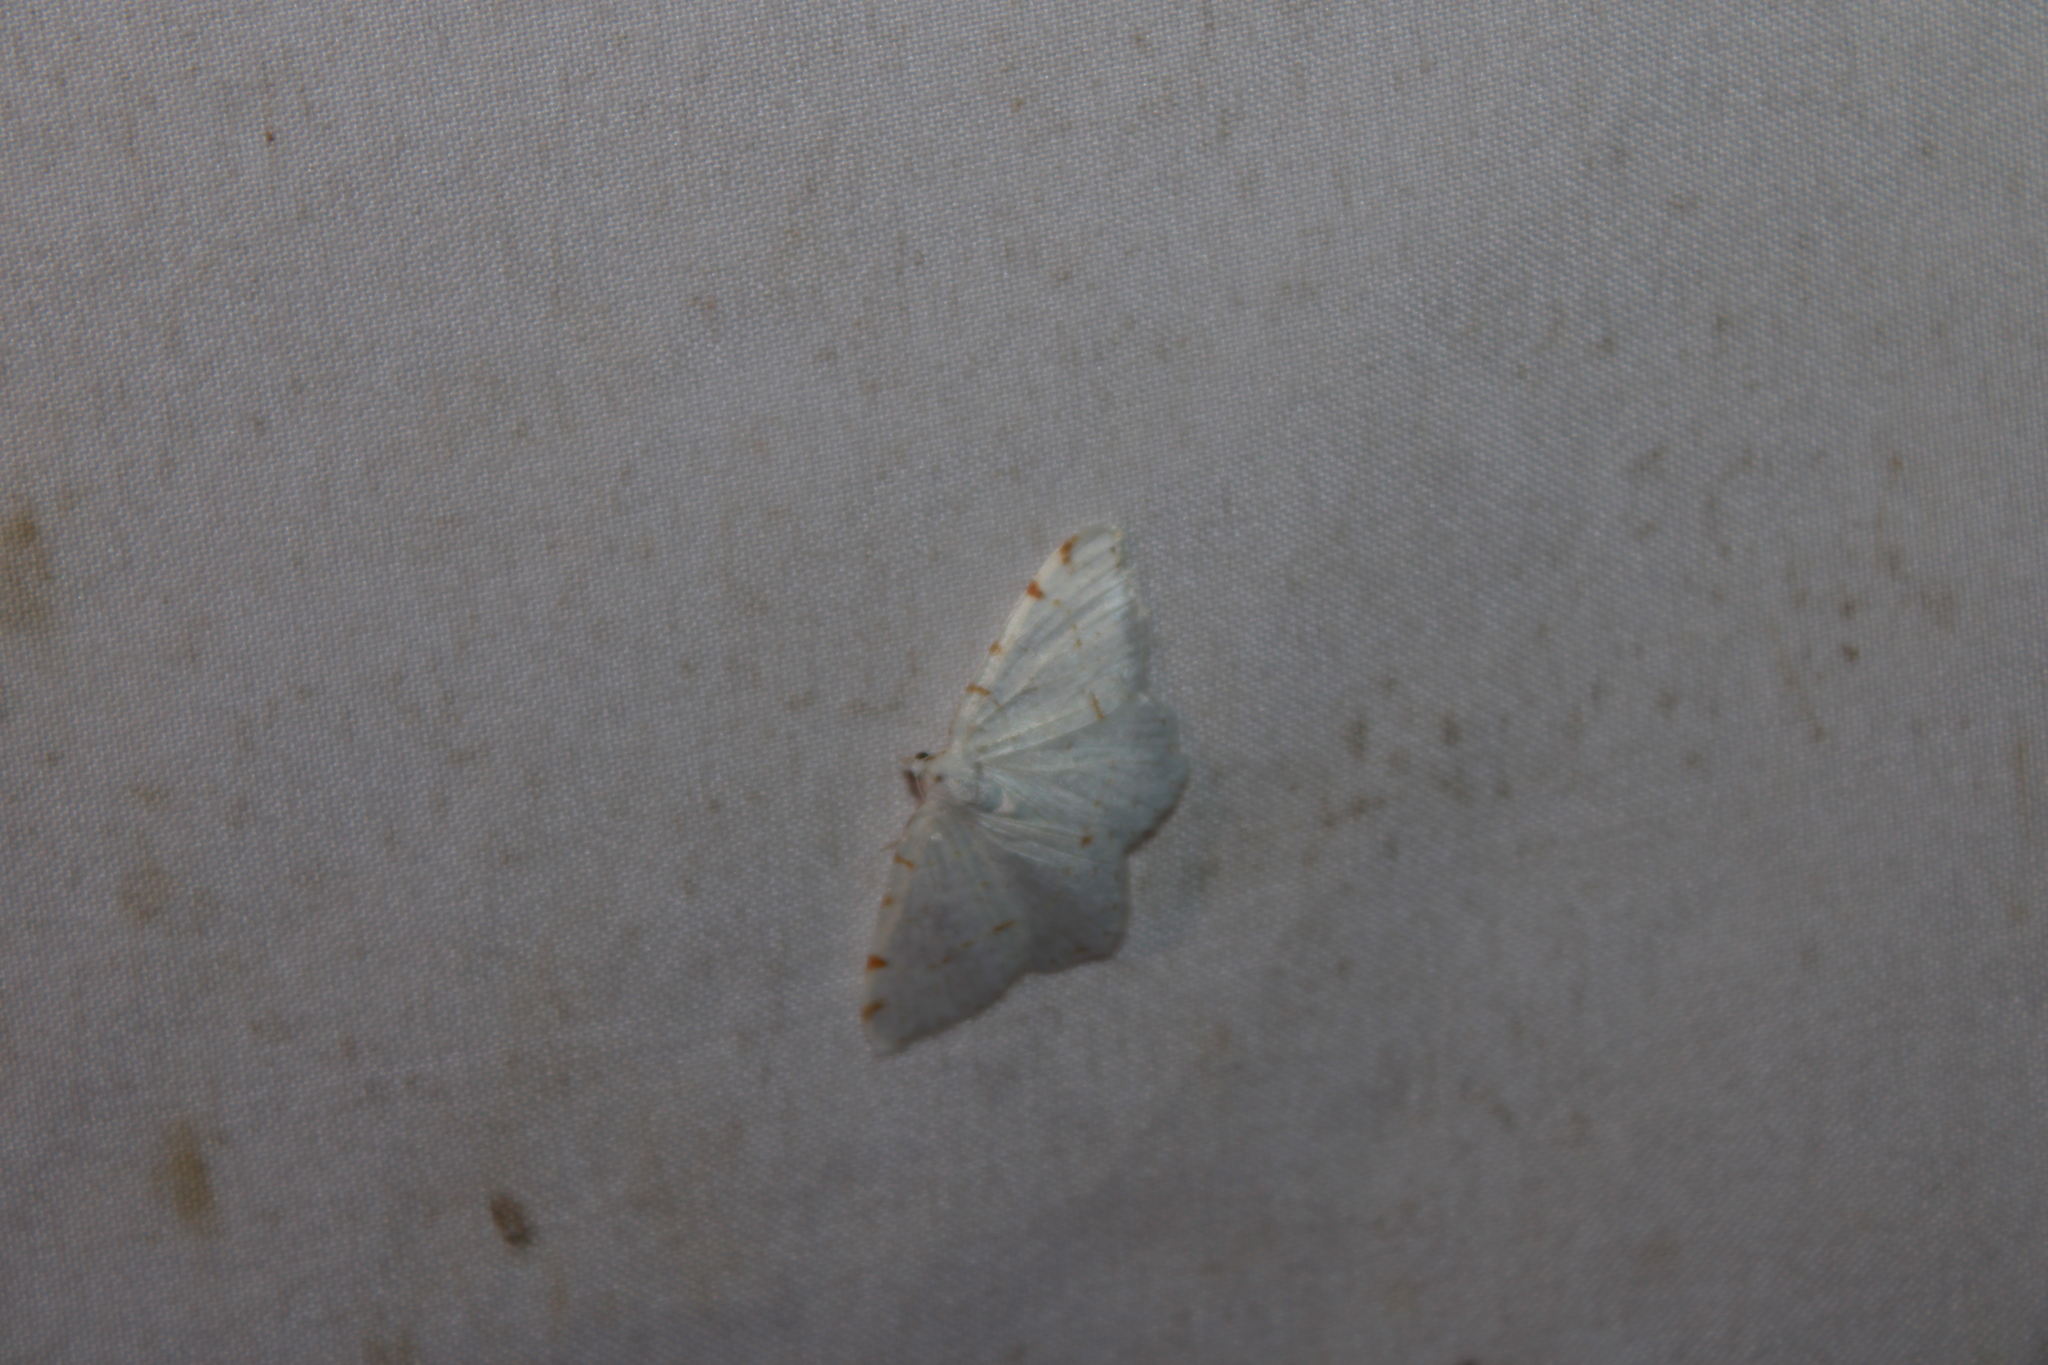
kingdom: Animalia
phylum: Arthropoda
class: Insecta
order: Lepidoptera
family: Geometridae
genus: Macaria
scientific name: Macaria pustularia
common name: Lesser maple spanworm moth
